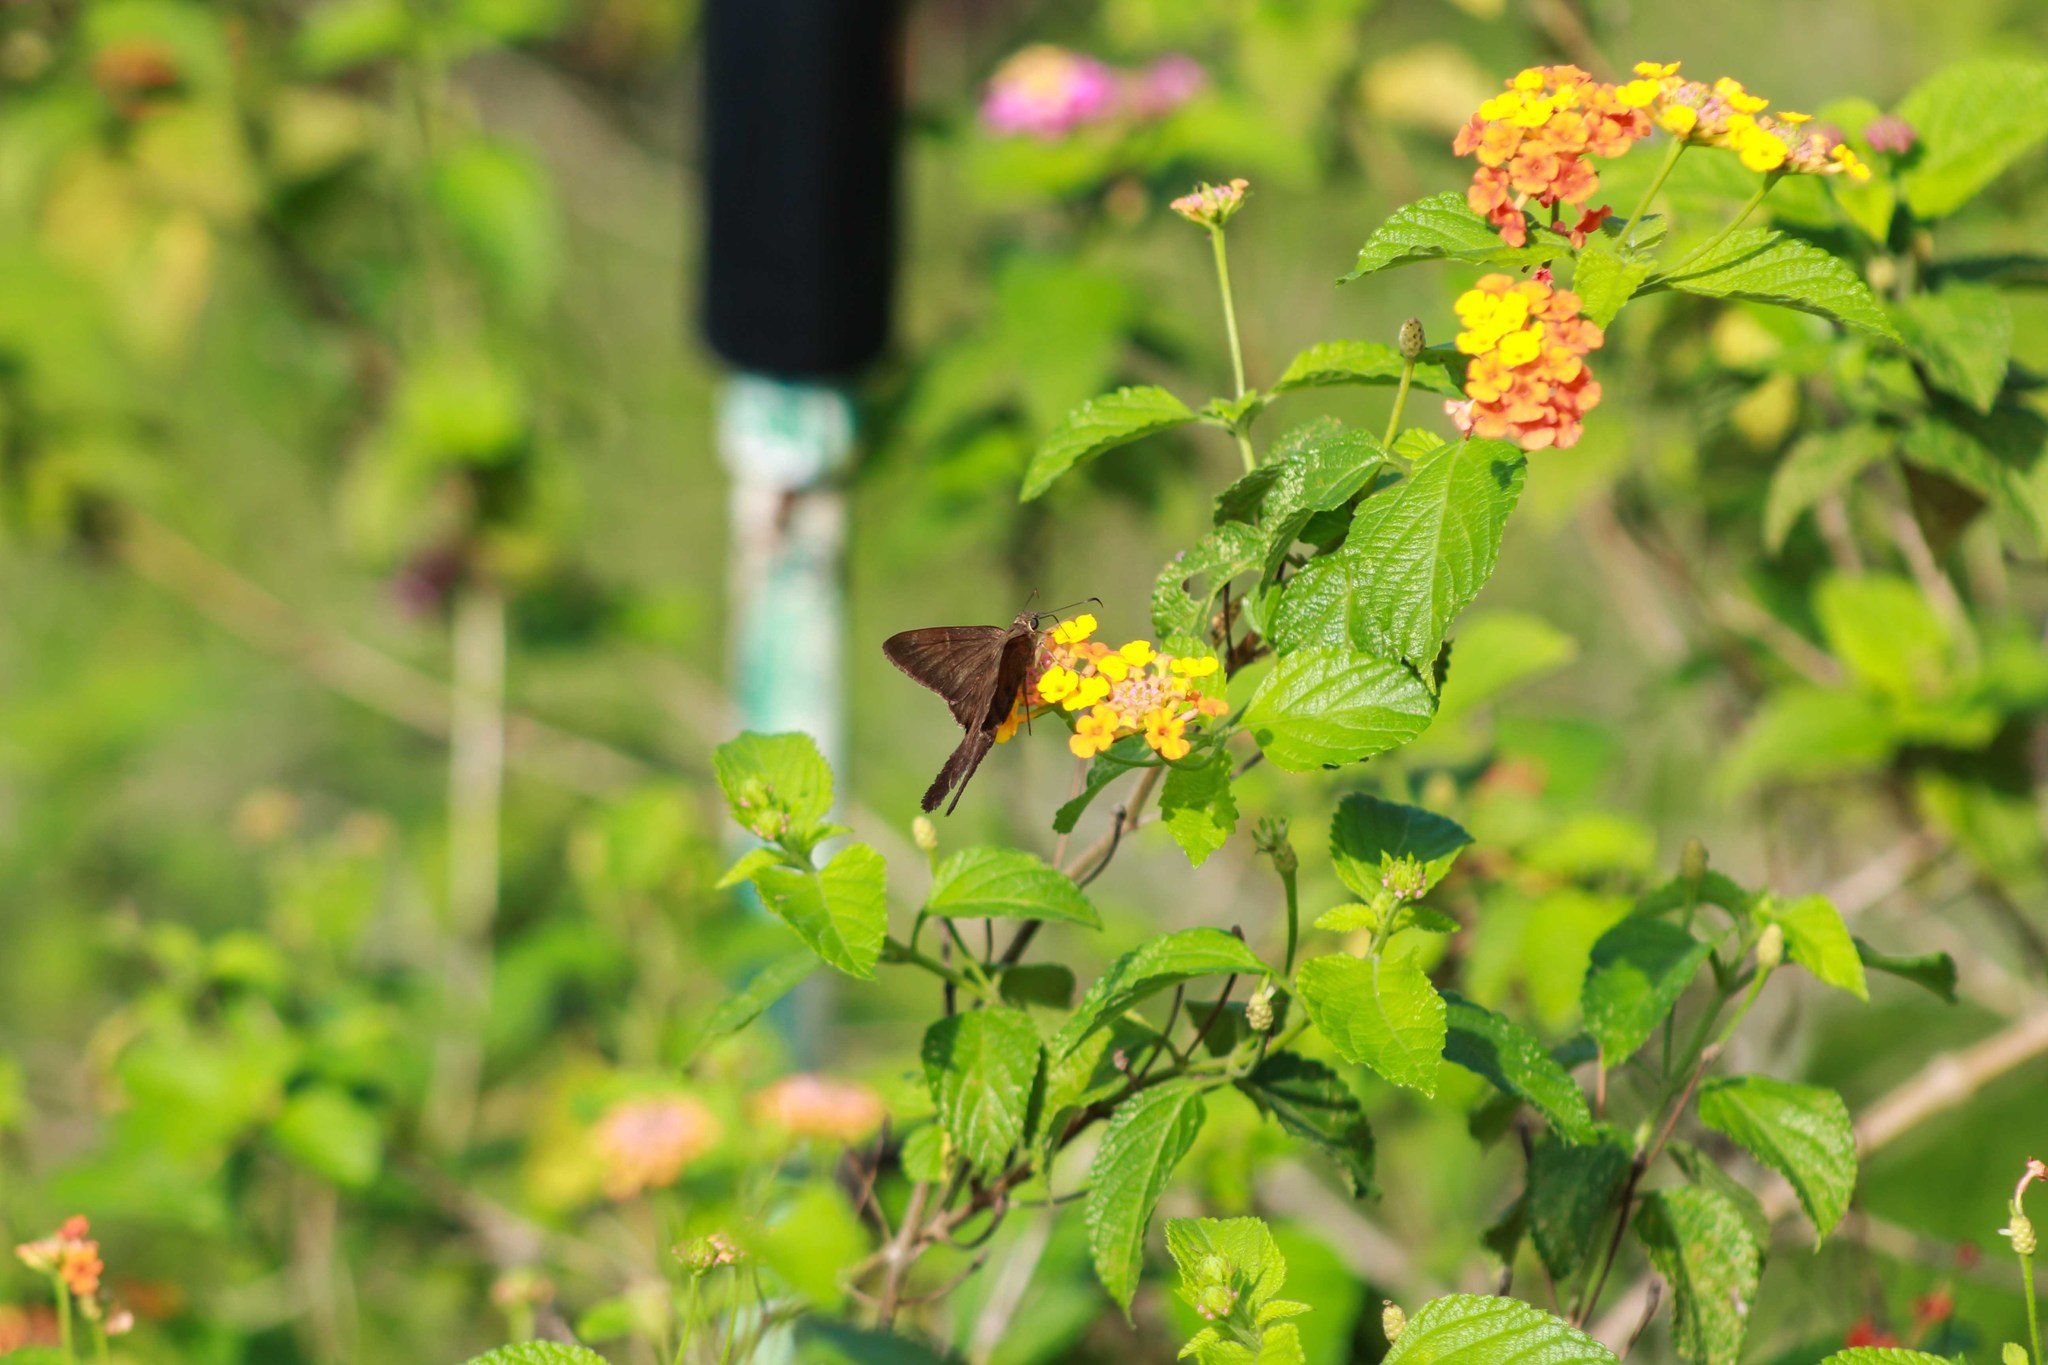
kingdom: Animalia
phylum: Arthropoda
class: Insecta
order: Lepidoptera
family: Hesperiidae
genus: Urbanus
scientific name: Urbanus procne
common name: Brown longtail
